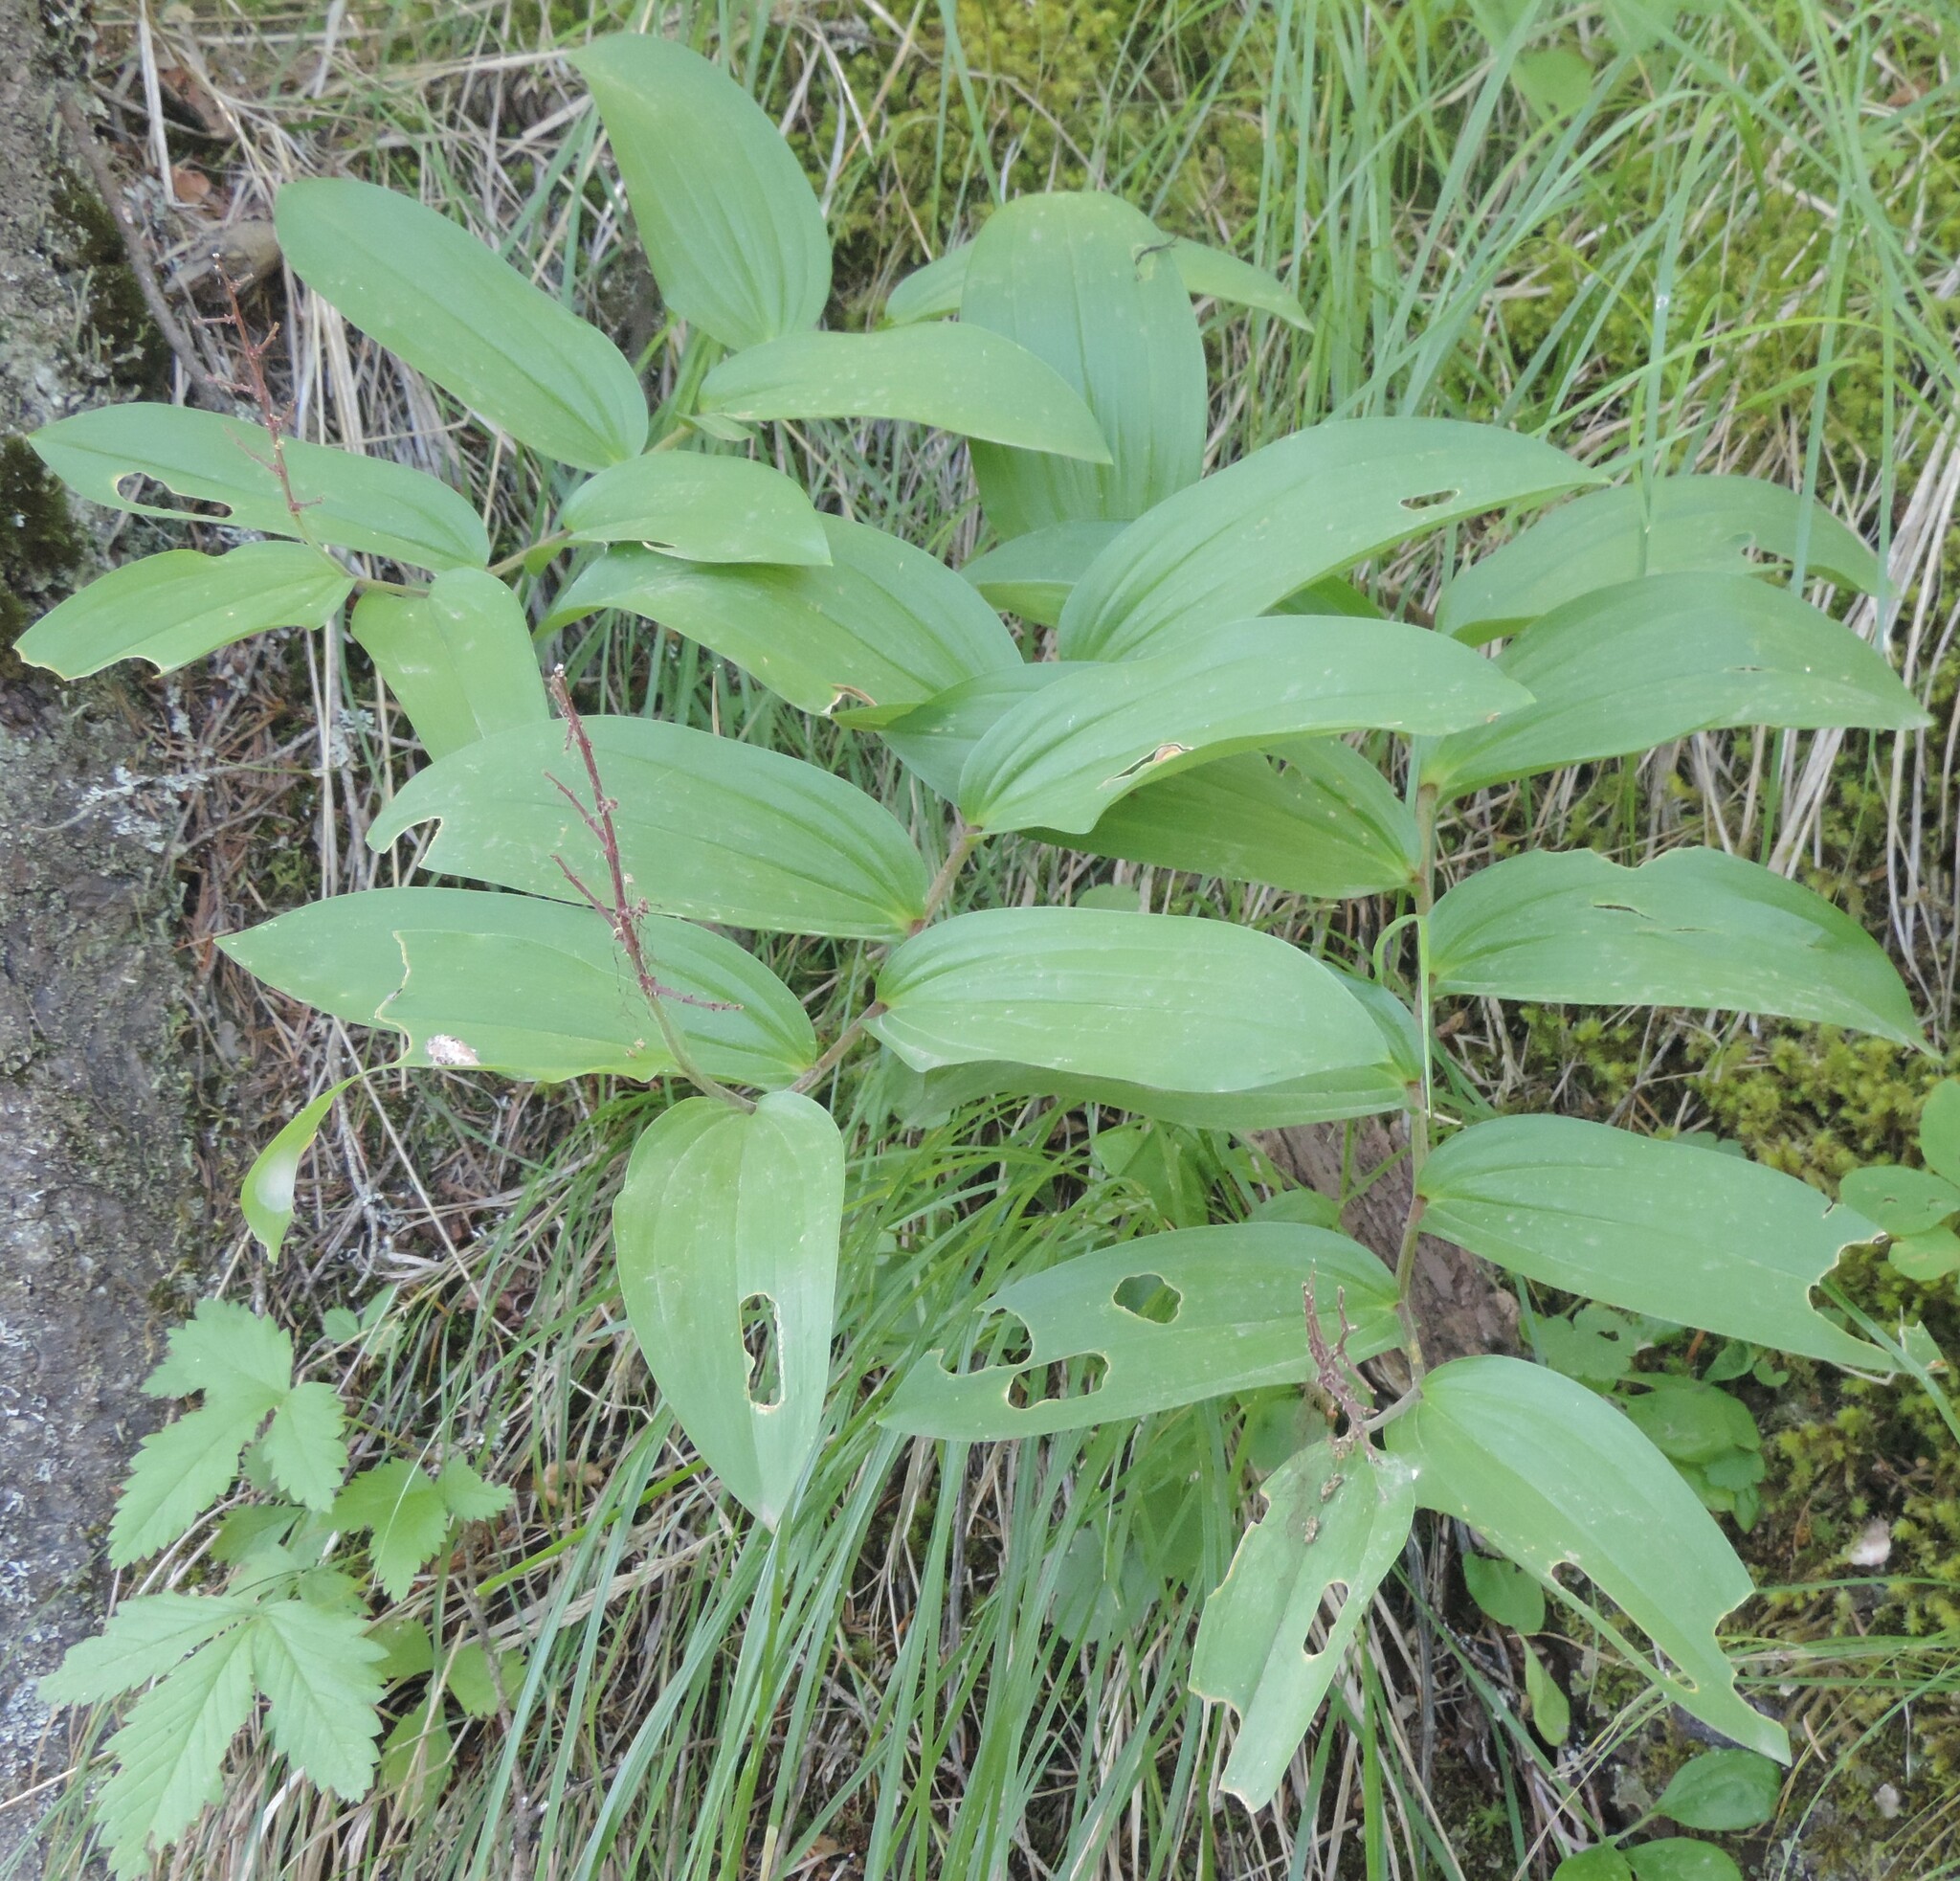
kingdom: Plantae
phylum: Tracheophyta
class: Liliopsida
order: Asparagales
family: Asparagaceae
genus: Maianthemum
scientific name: Maianthemum racemosum
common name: False spikenard
